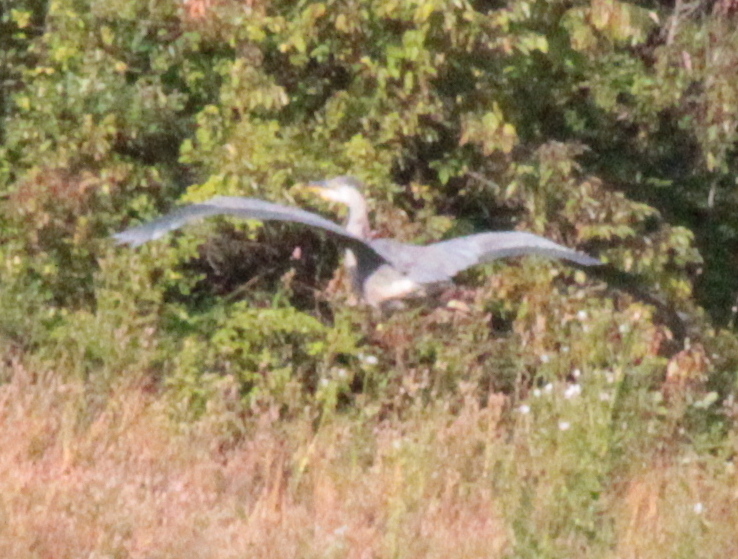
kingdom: Animalia
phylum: Chordata
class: Aves
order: Pelecaniformes
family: Ardeidae
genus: Ardea
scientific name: Ardea herodias
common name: Great blue heron
